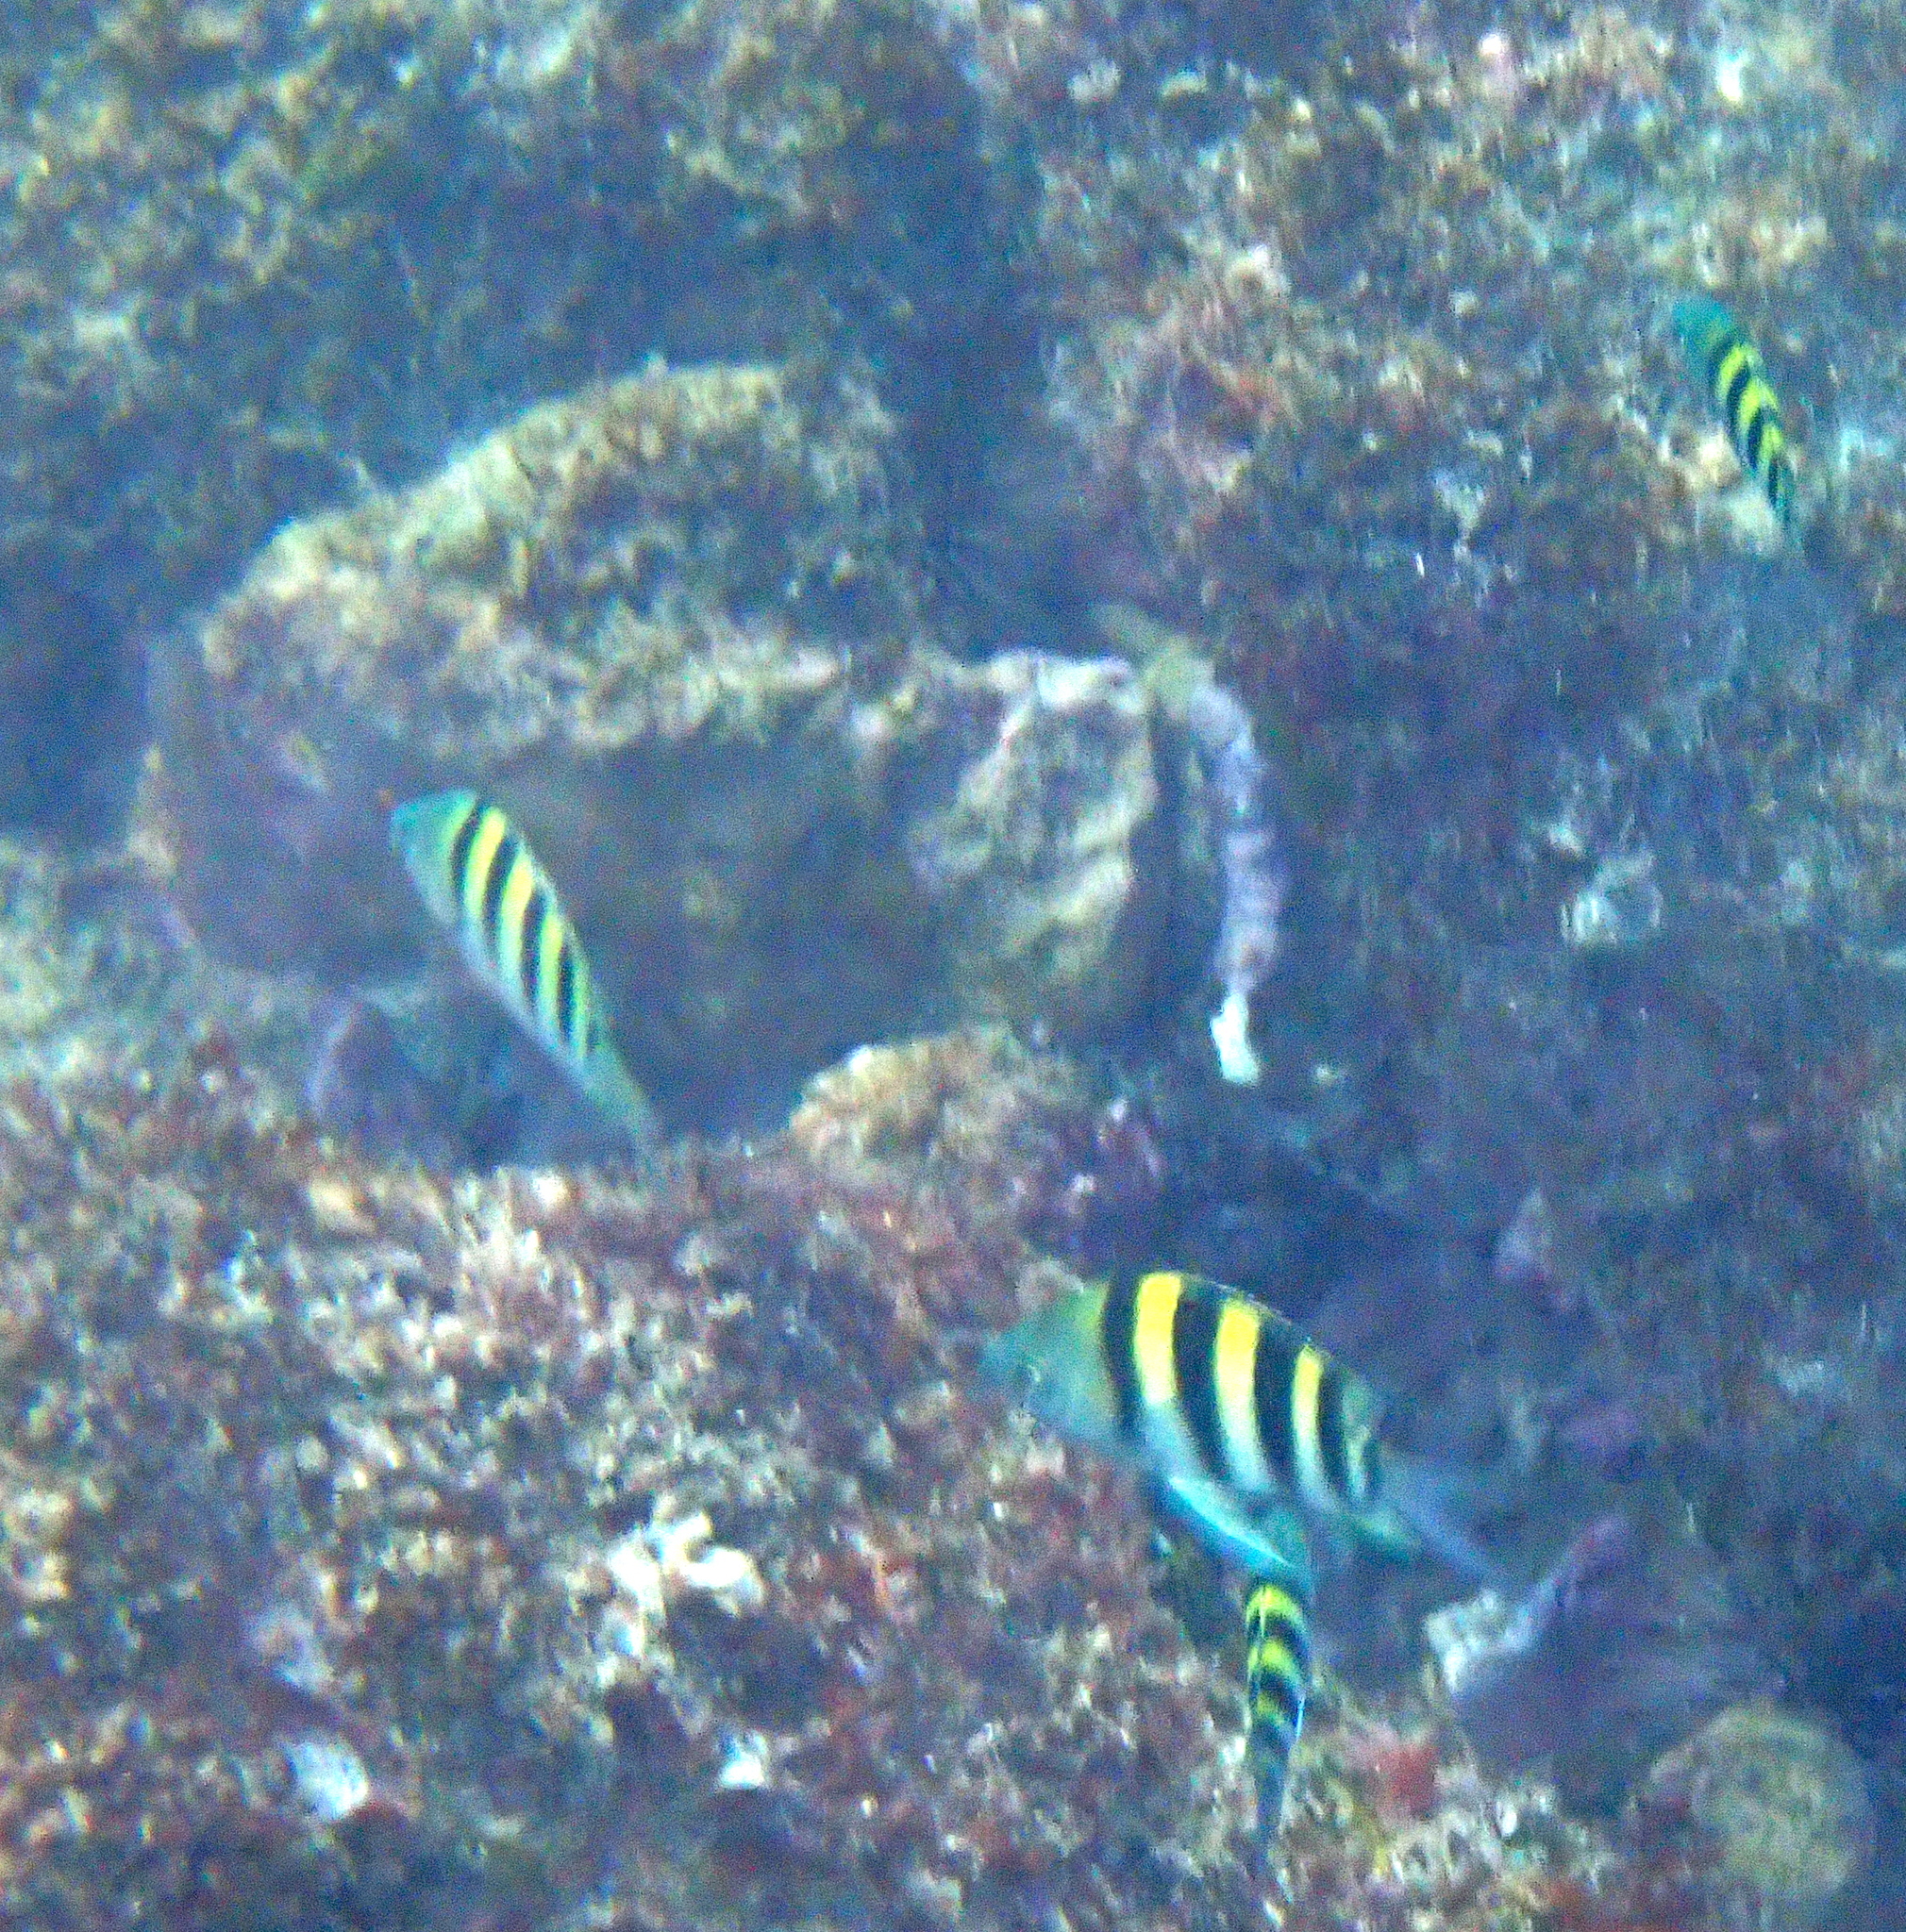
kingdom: Animalia
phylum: Chordata
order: Perciformes
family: Pomacentridae
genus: Abudefduf
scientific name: Abudefduf vaigiensis
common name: Indo-pacific sergeant
